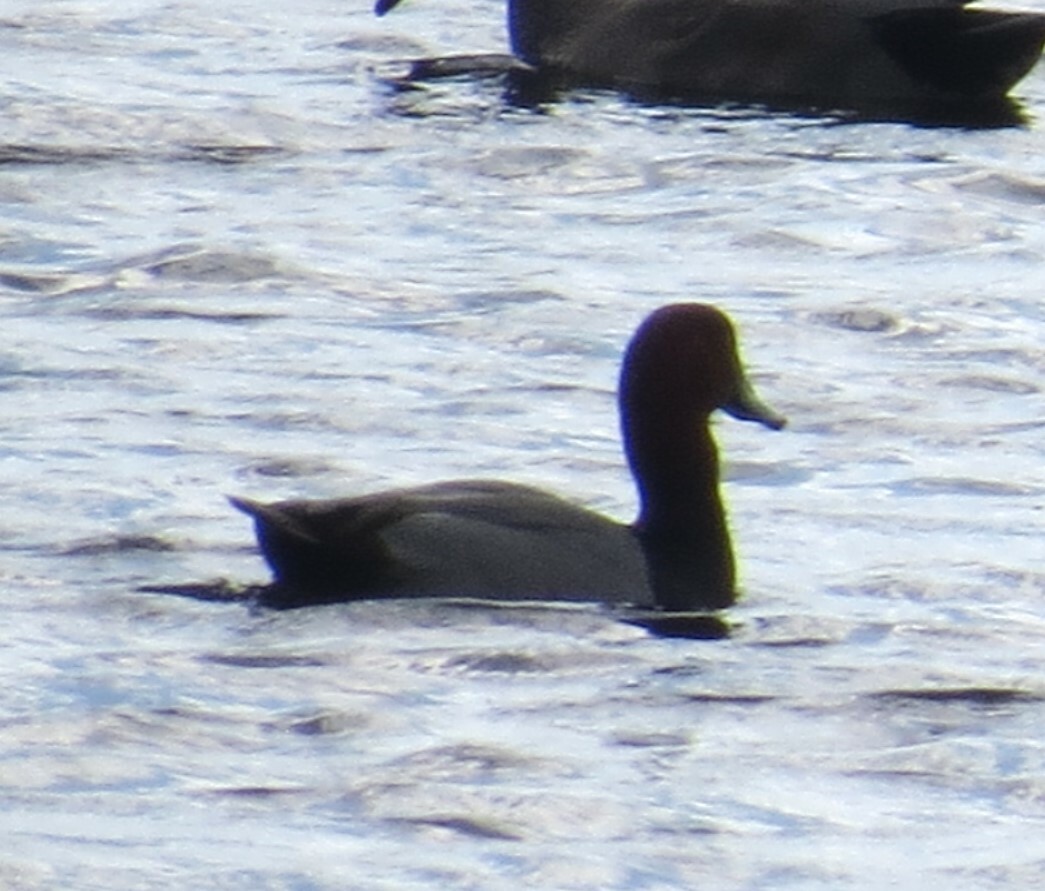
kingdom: Animalia
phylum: Chordata
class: Aves
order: Anseriformes
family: Anatidae
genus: Aythya
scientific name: Aythya americana
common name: Redhead
